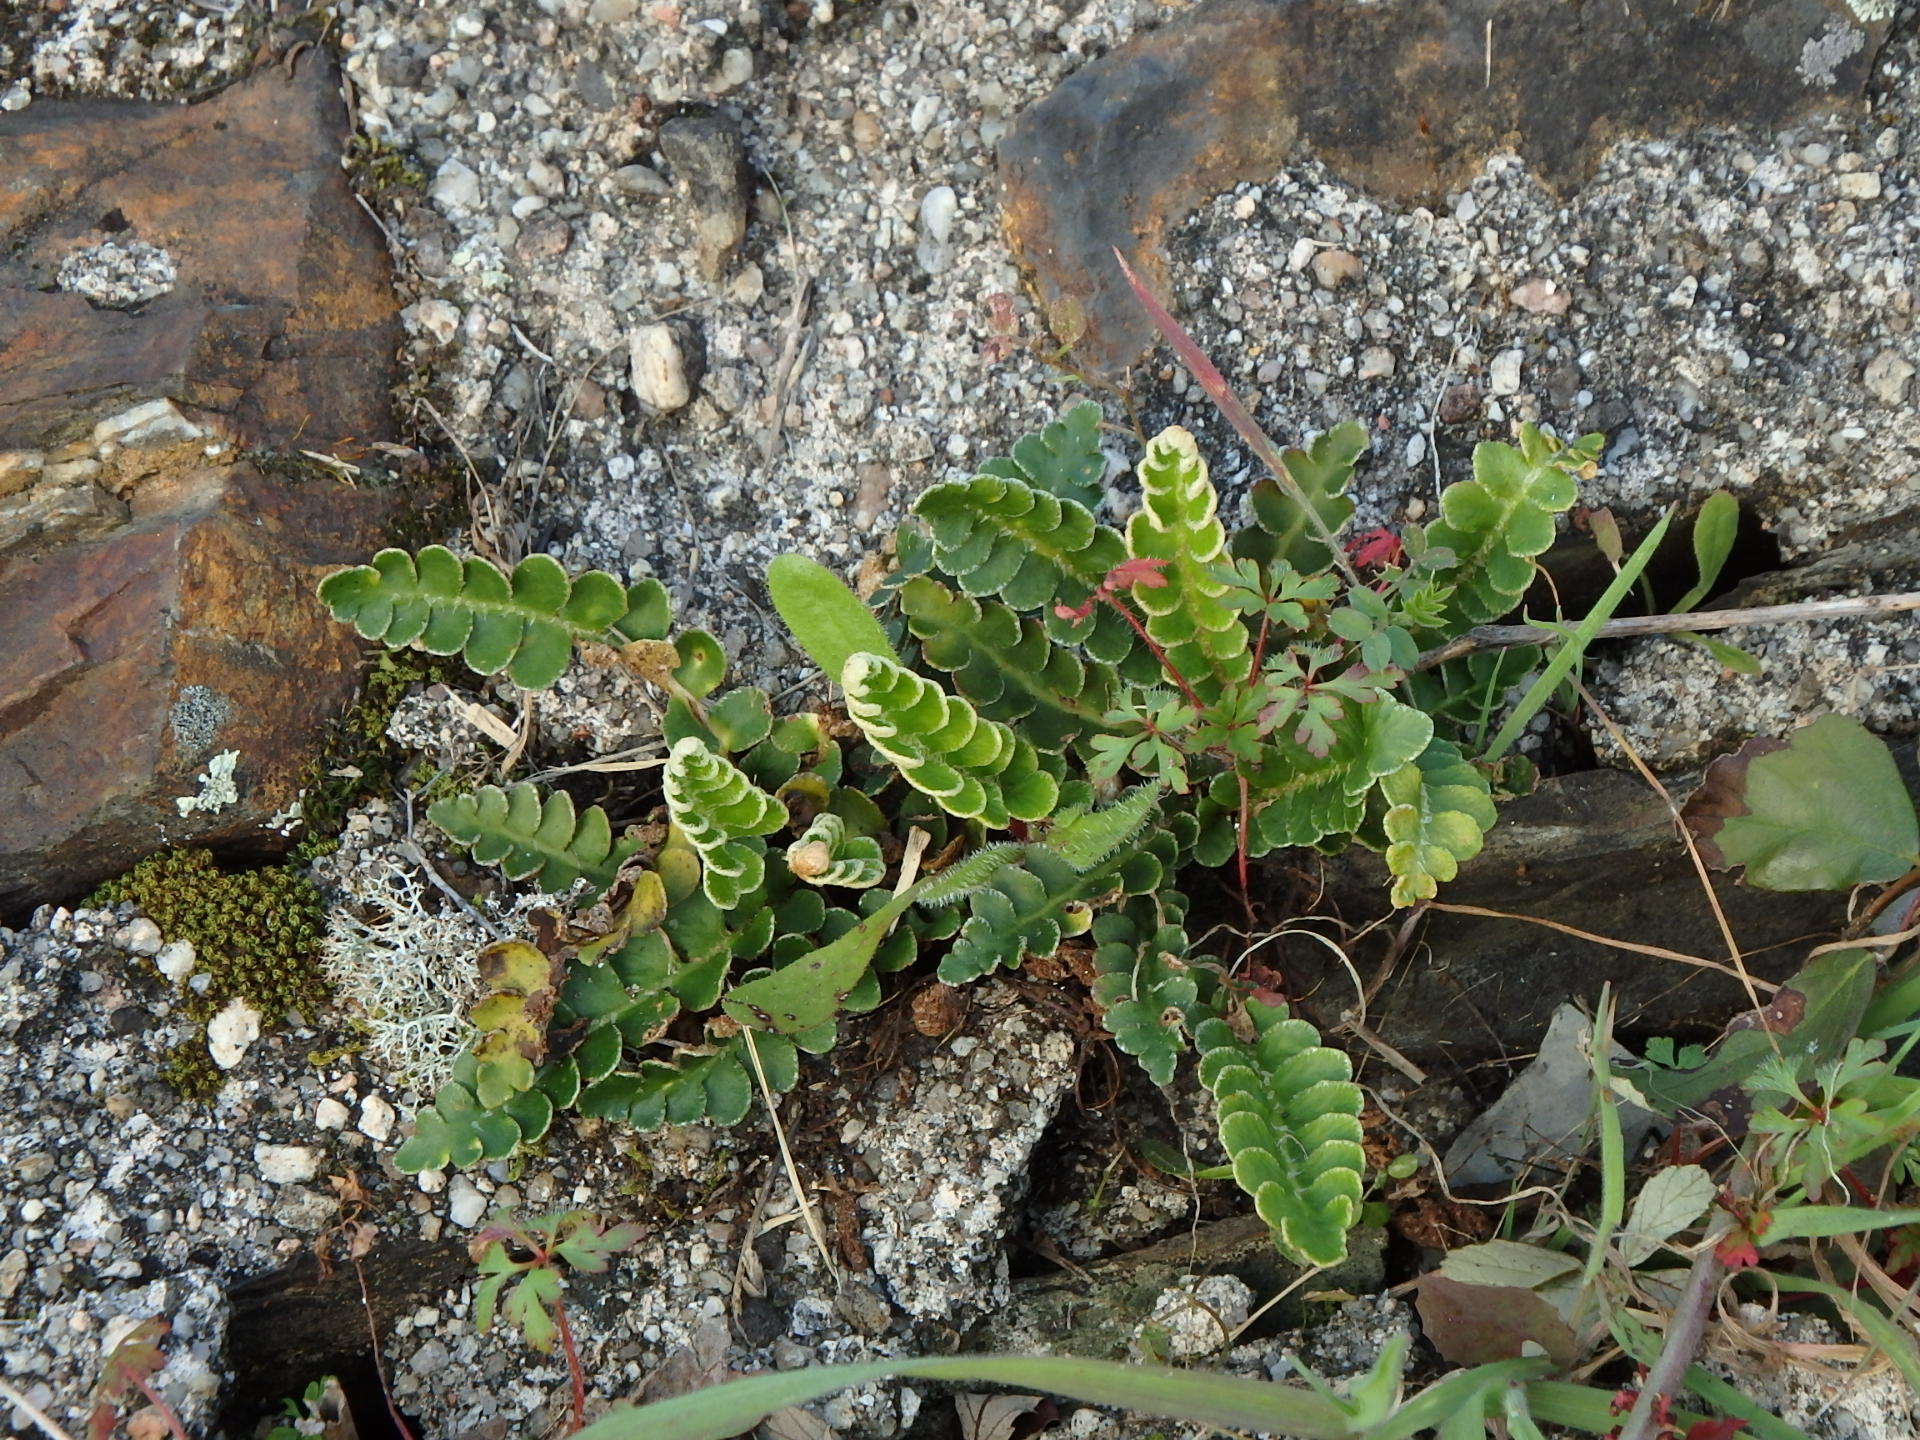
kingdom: Plantae
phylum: Tracheophyta
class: Polypodiopsida
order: Polypodiales
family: Aspleniaceae
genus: Asplenium
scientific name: Asplenium ceterach
